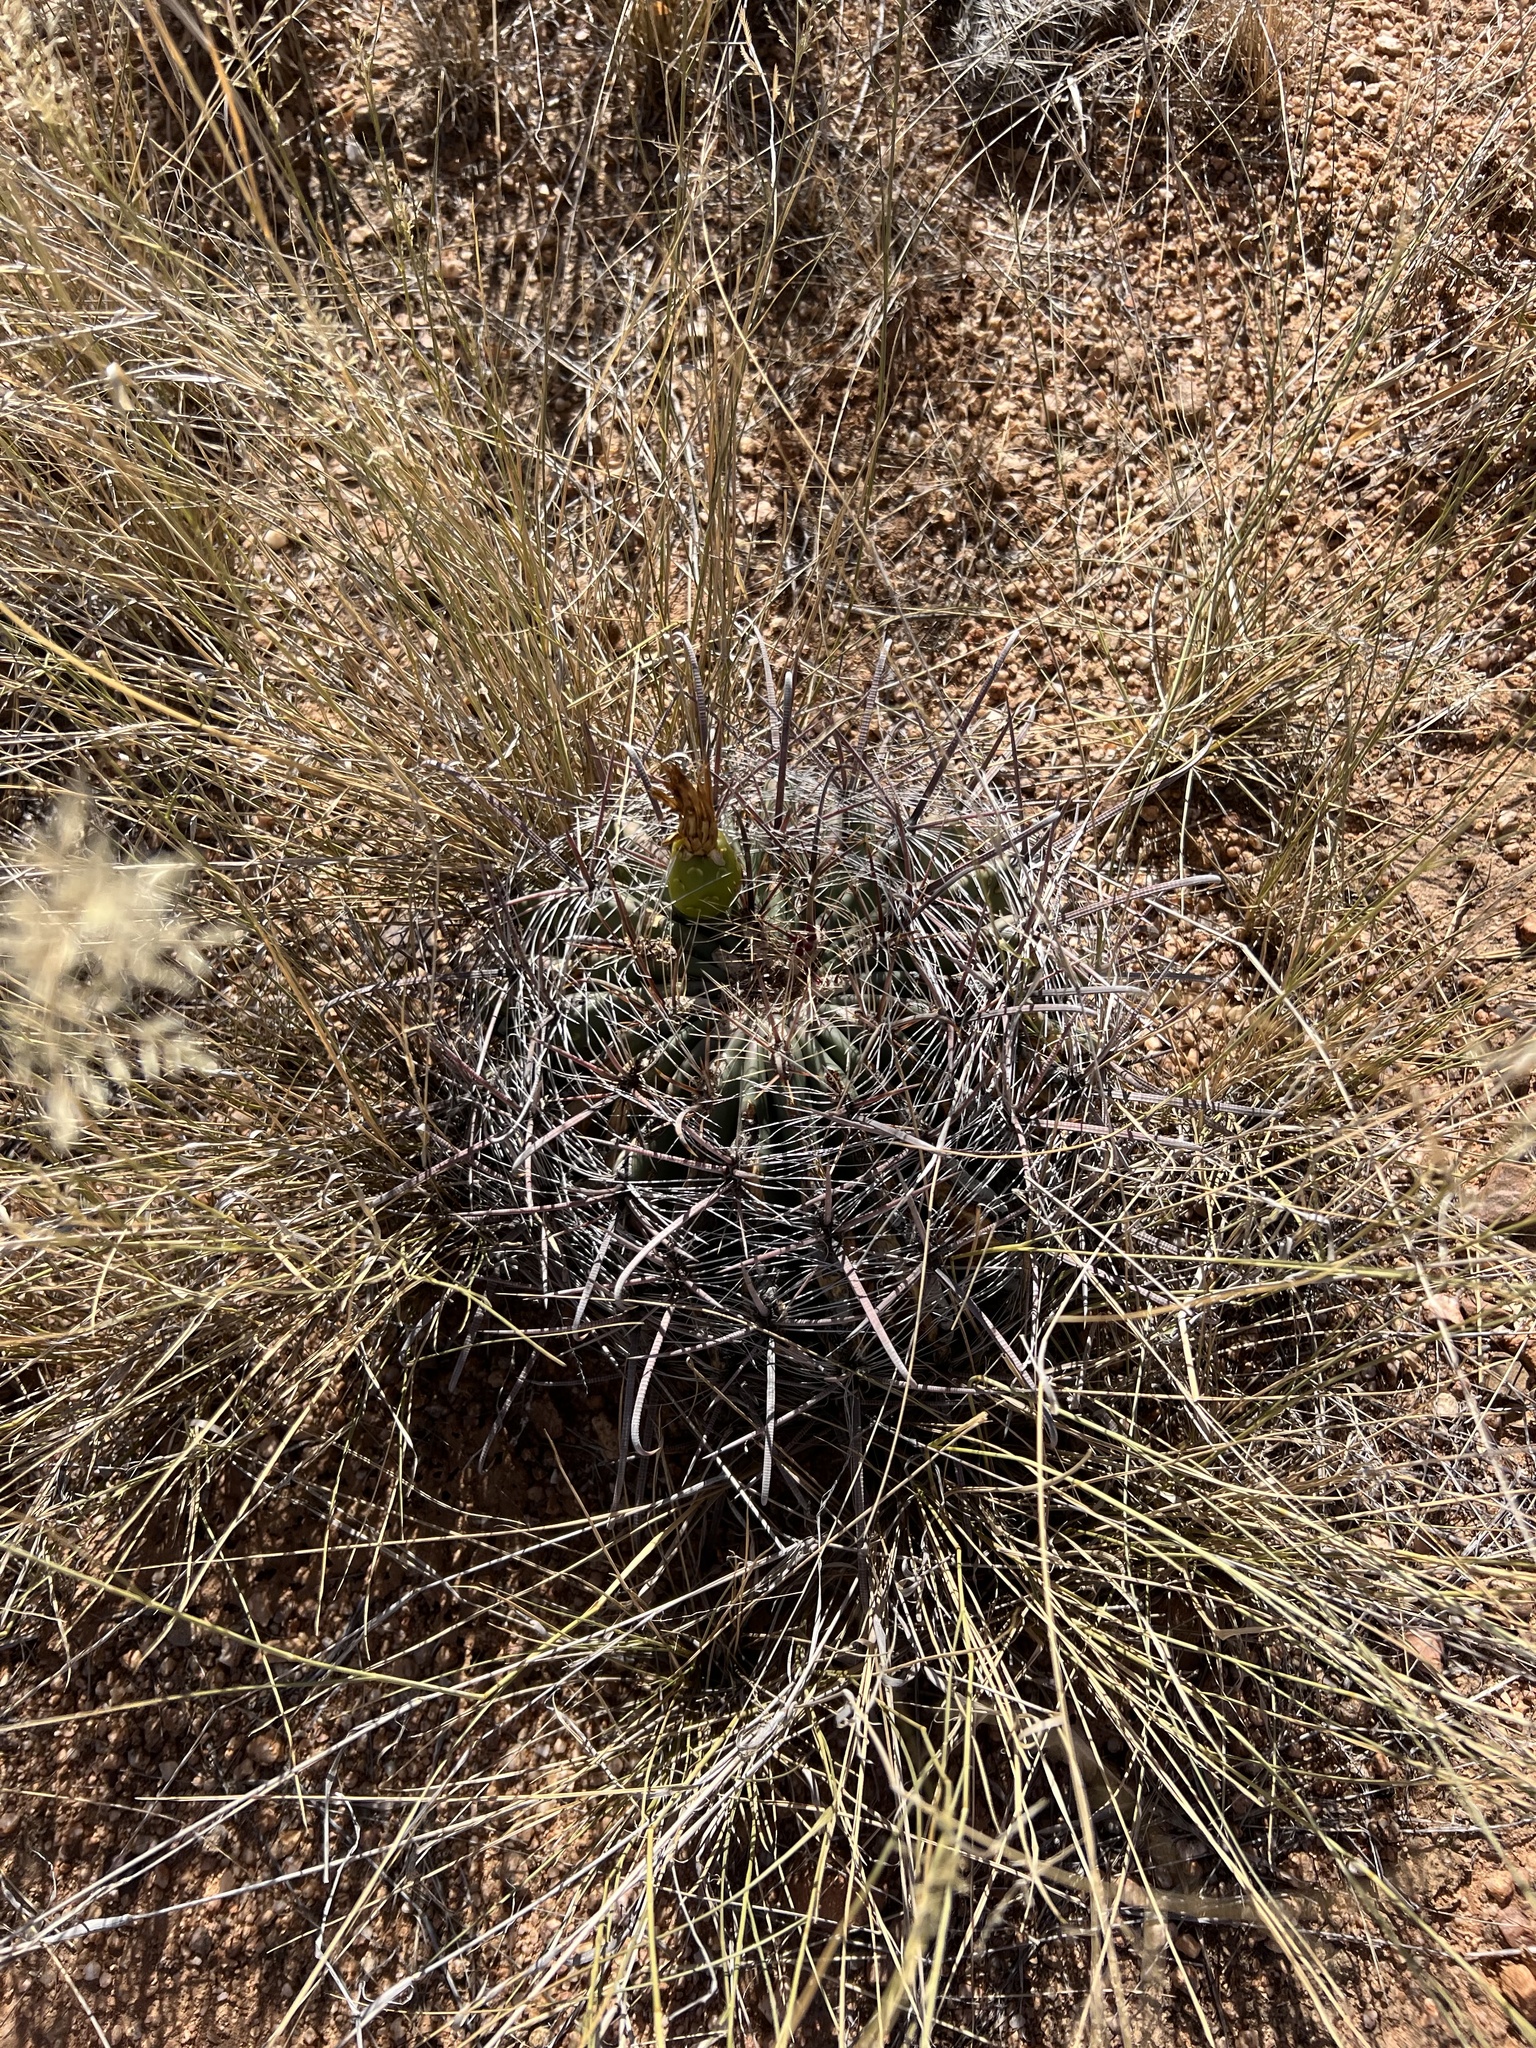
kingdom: Plantae
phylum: Tracheophyta
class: Magnoliopsida
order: Caryophyllales
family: Cactaceae
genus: Ferocactus
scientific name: Ferocactus wislizeni
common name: Candy barrel cactus
